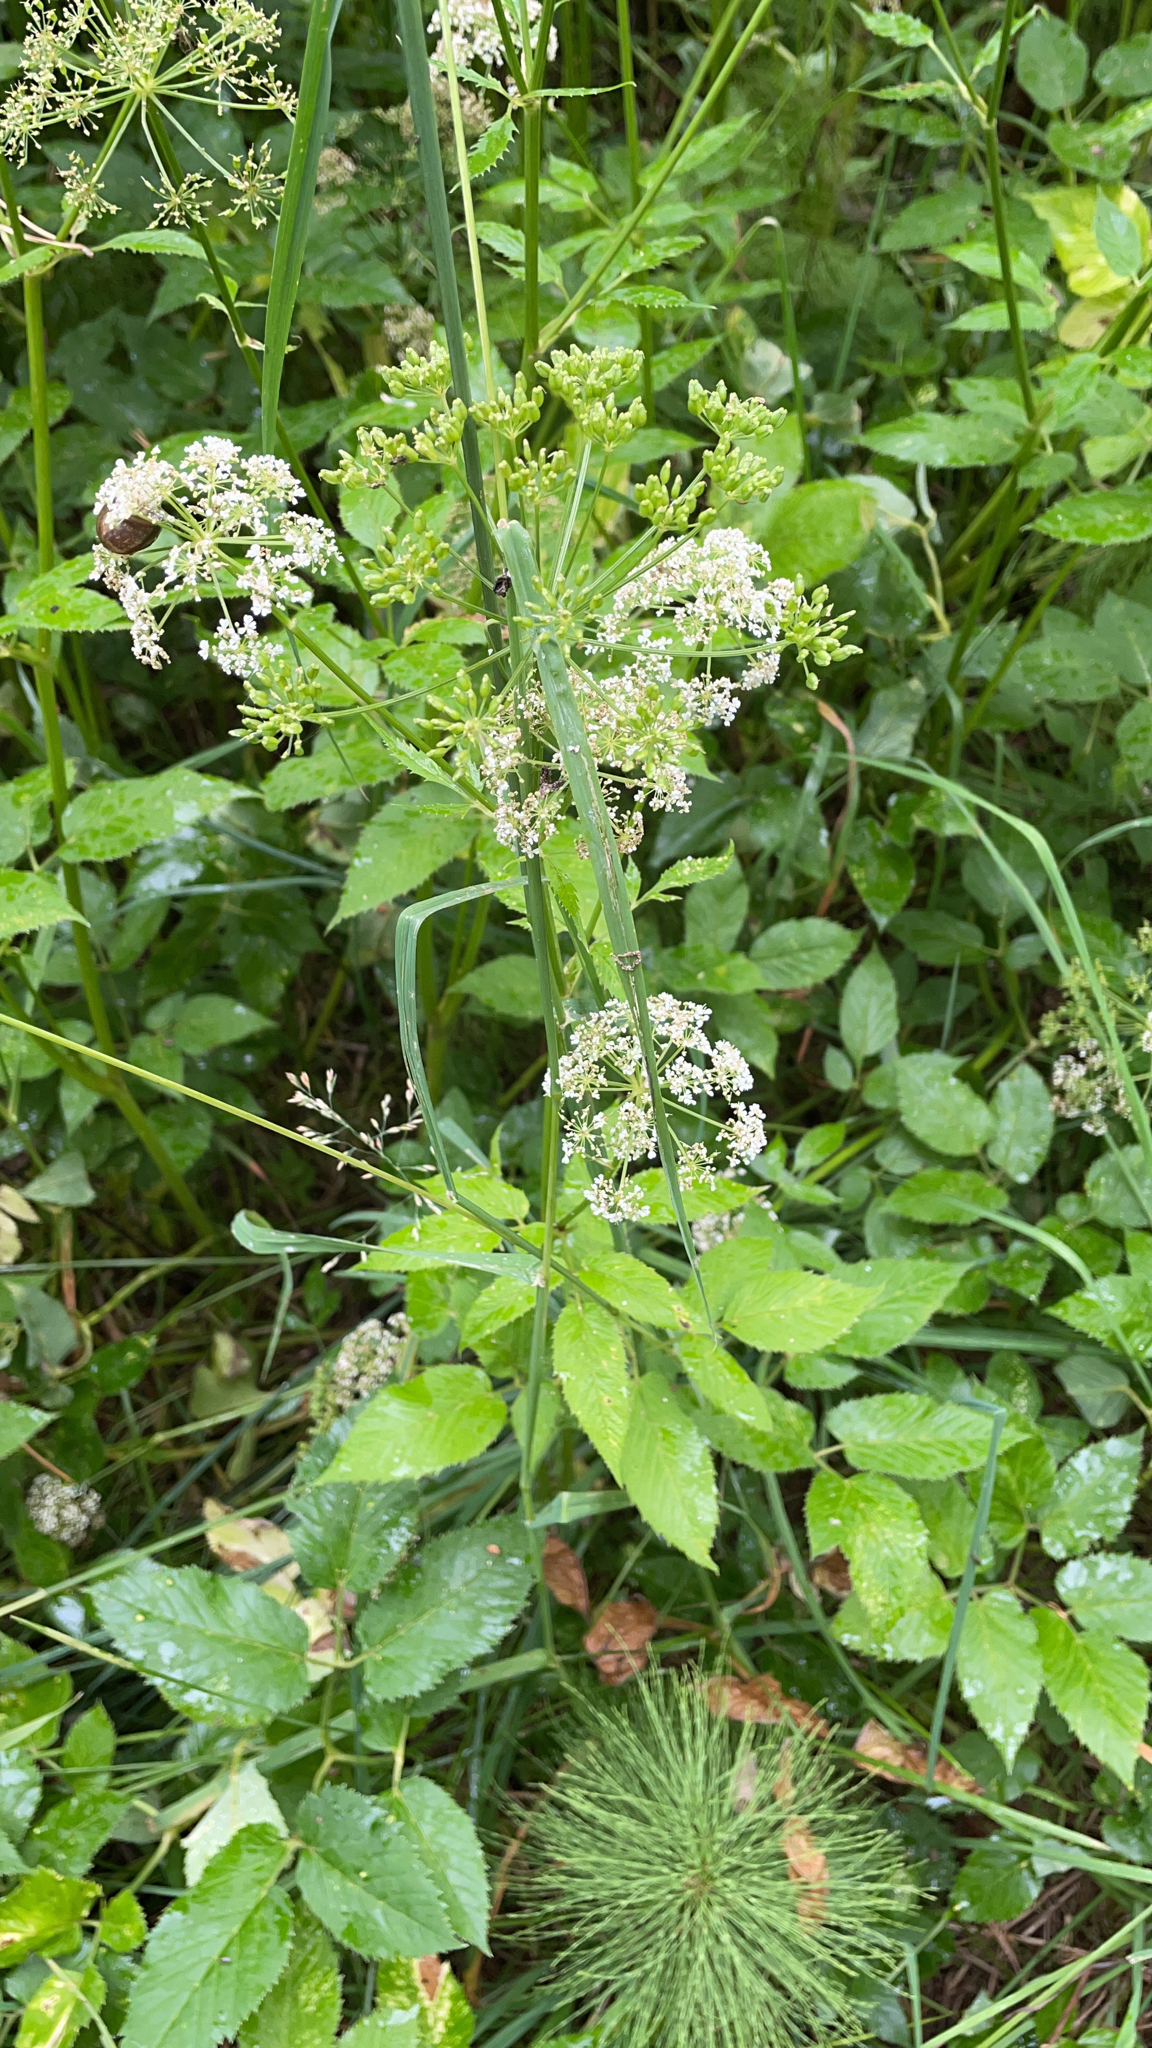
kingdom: Plantae
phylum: Tracheophyta
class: Magnoliopsida
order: Apiales
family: Apiaceae
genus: Aegopodium
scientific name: Aegopodium podagraria
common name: Ground-elder
